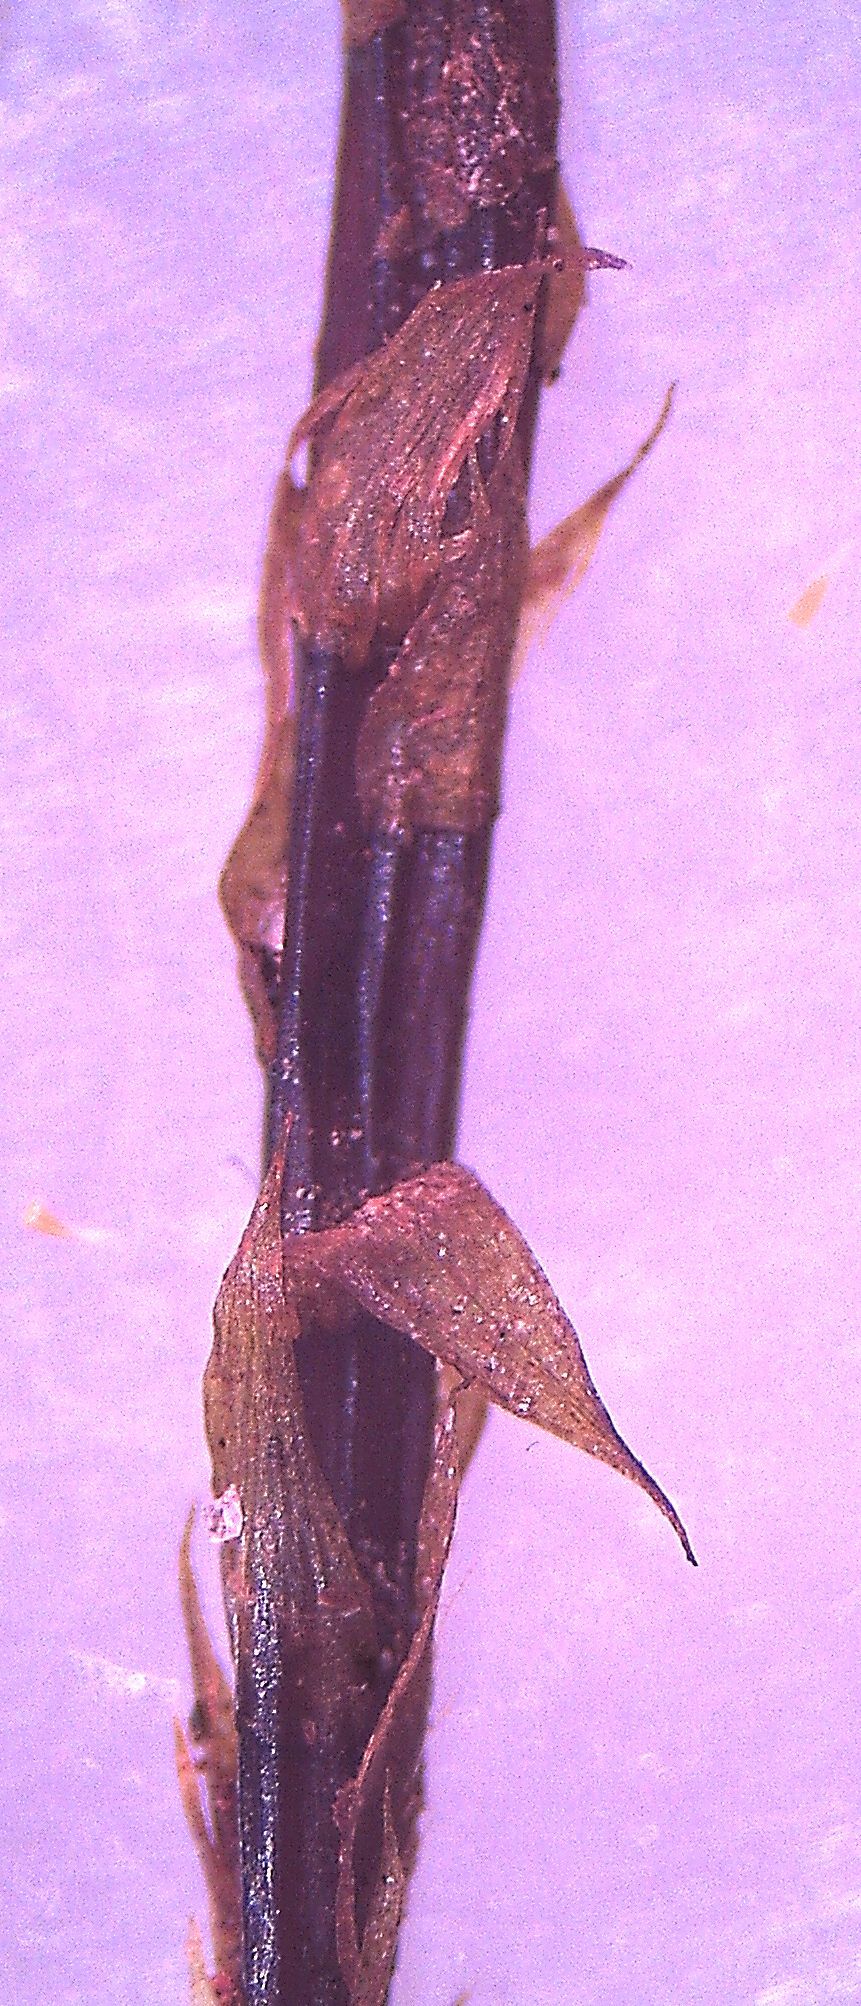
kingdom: Plantae
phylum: Bryophyta
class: Bryopsida
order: Hypnodendrales
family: Spiridentaceae
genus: Hypnodendron
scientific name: Hypnodendron marginatum
